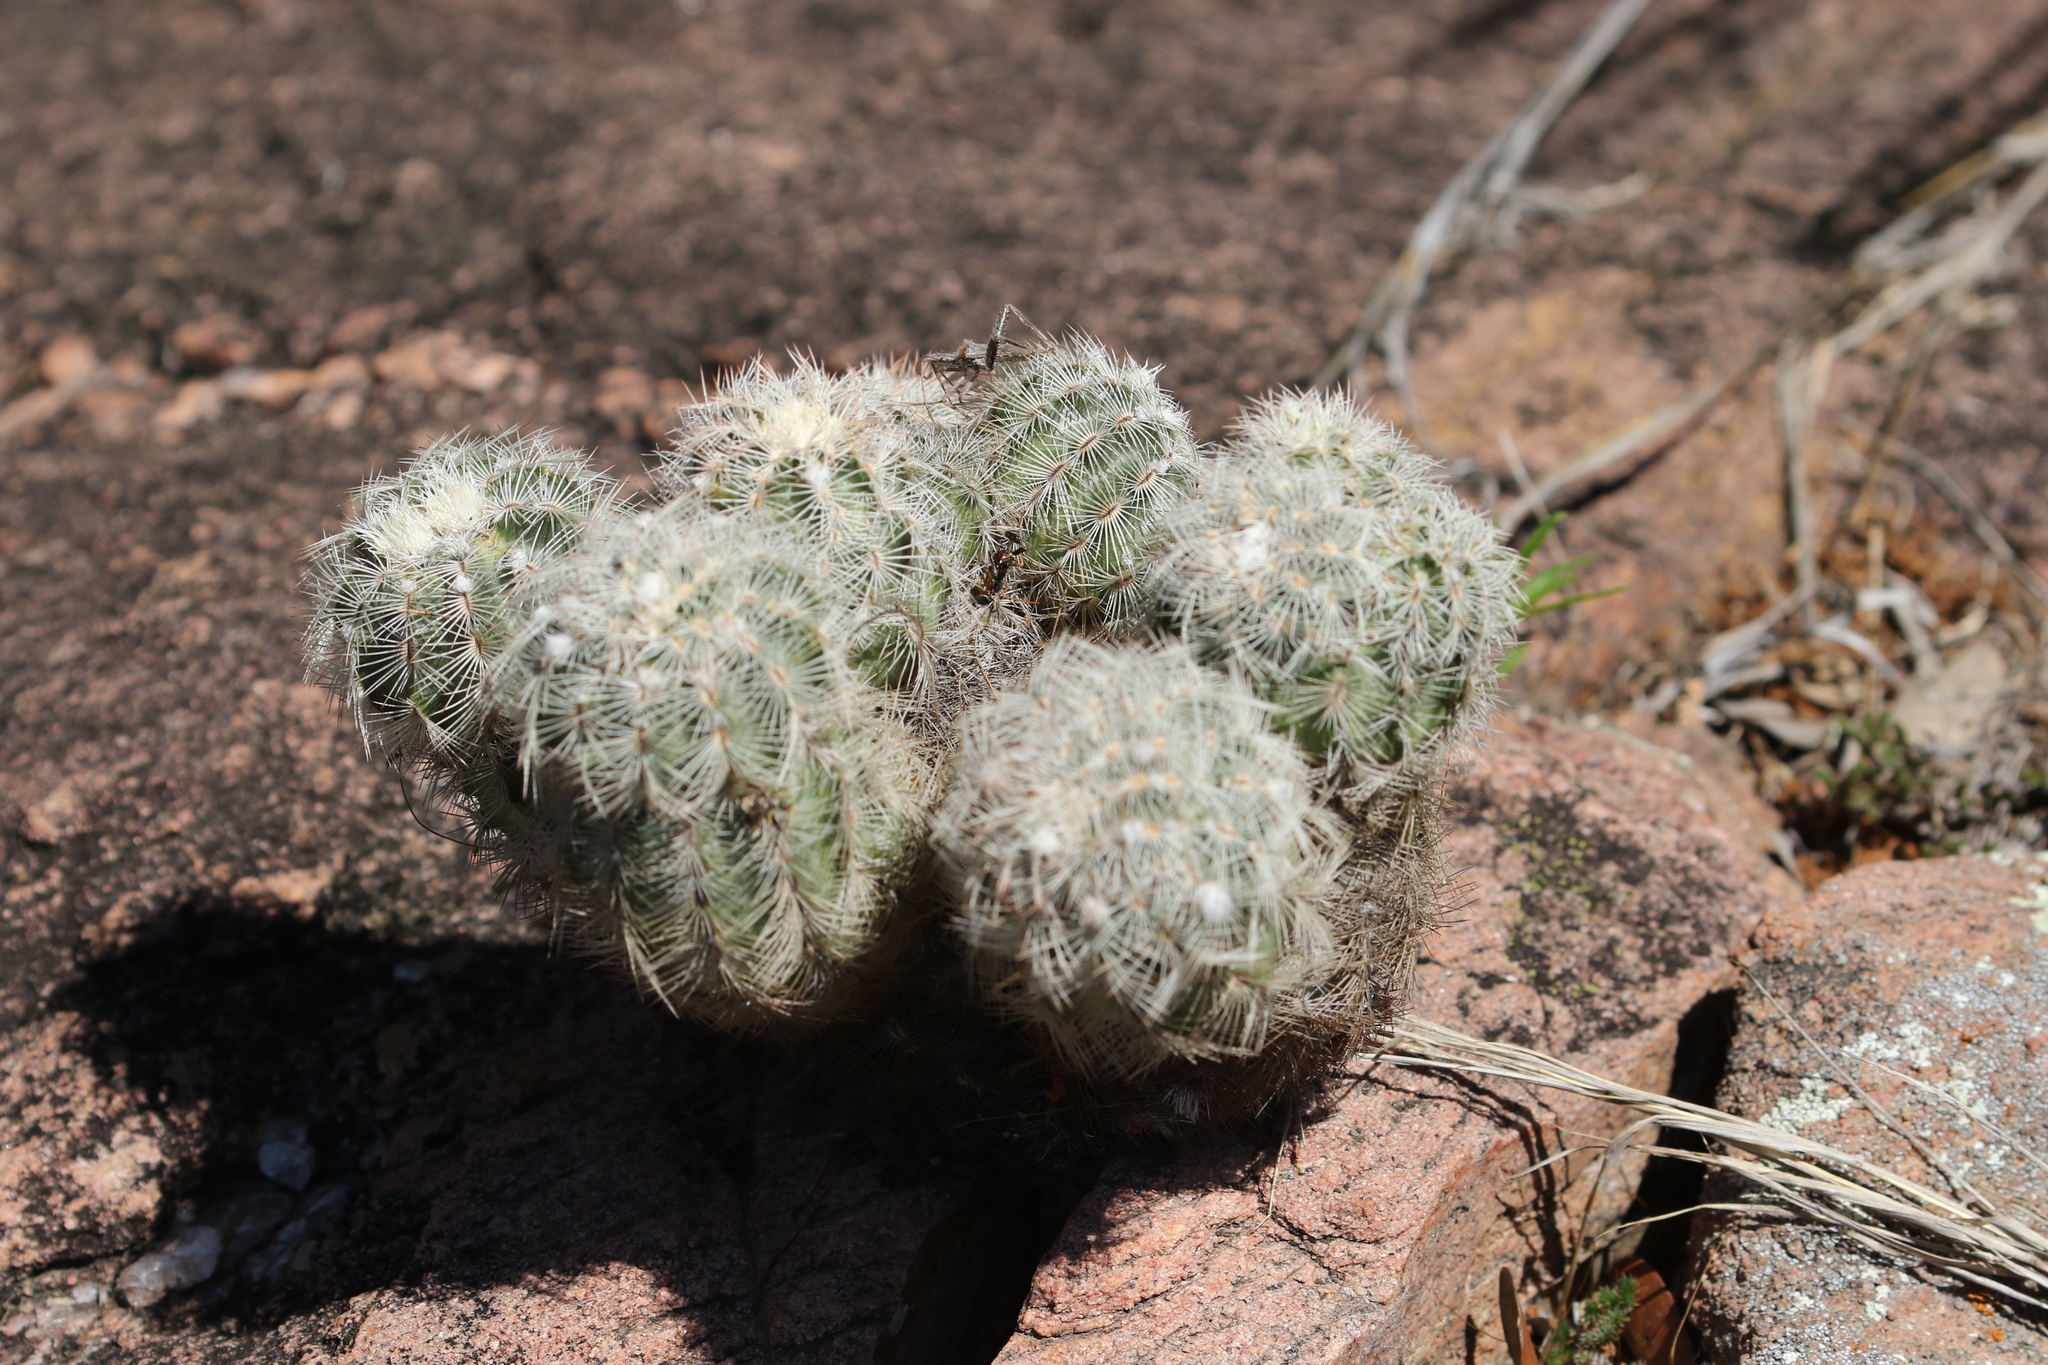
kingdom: Plantae
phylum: Tracheophyta
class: Magnoliopsida
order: Caryophyllales
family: Cactaceae
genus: Echinocereus
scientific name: Echinocereus reichenbachii
